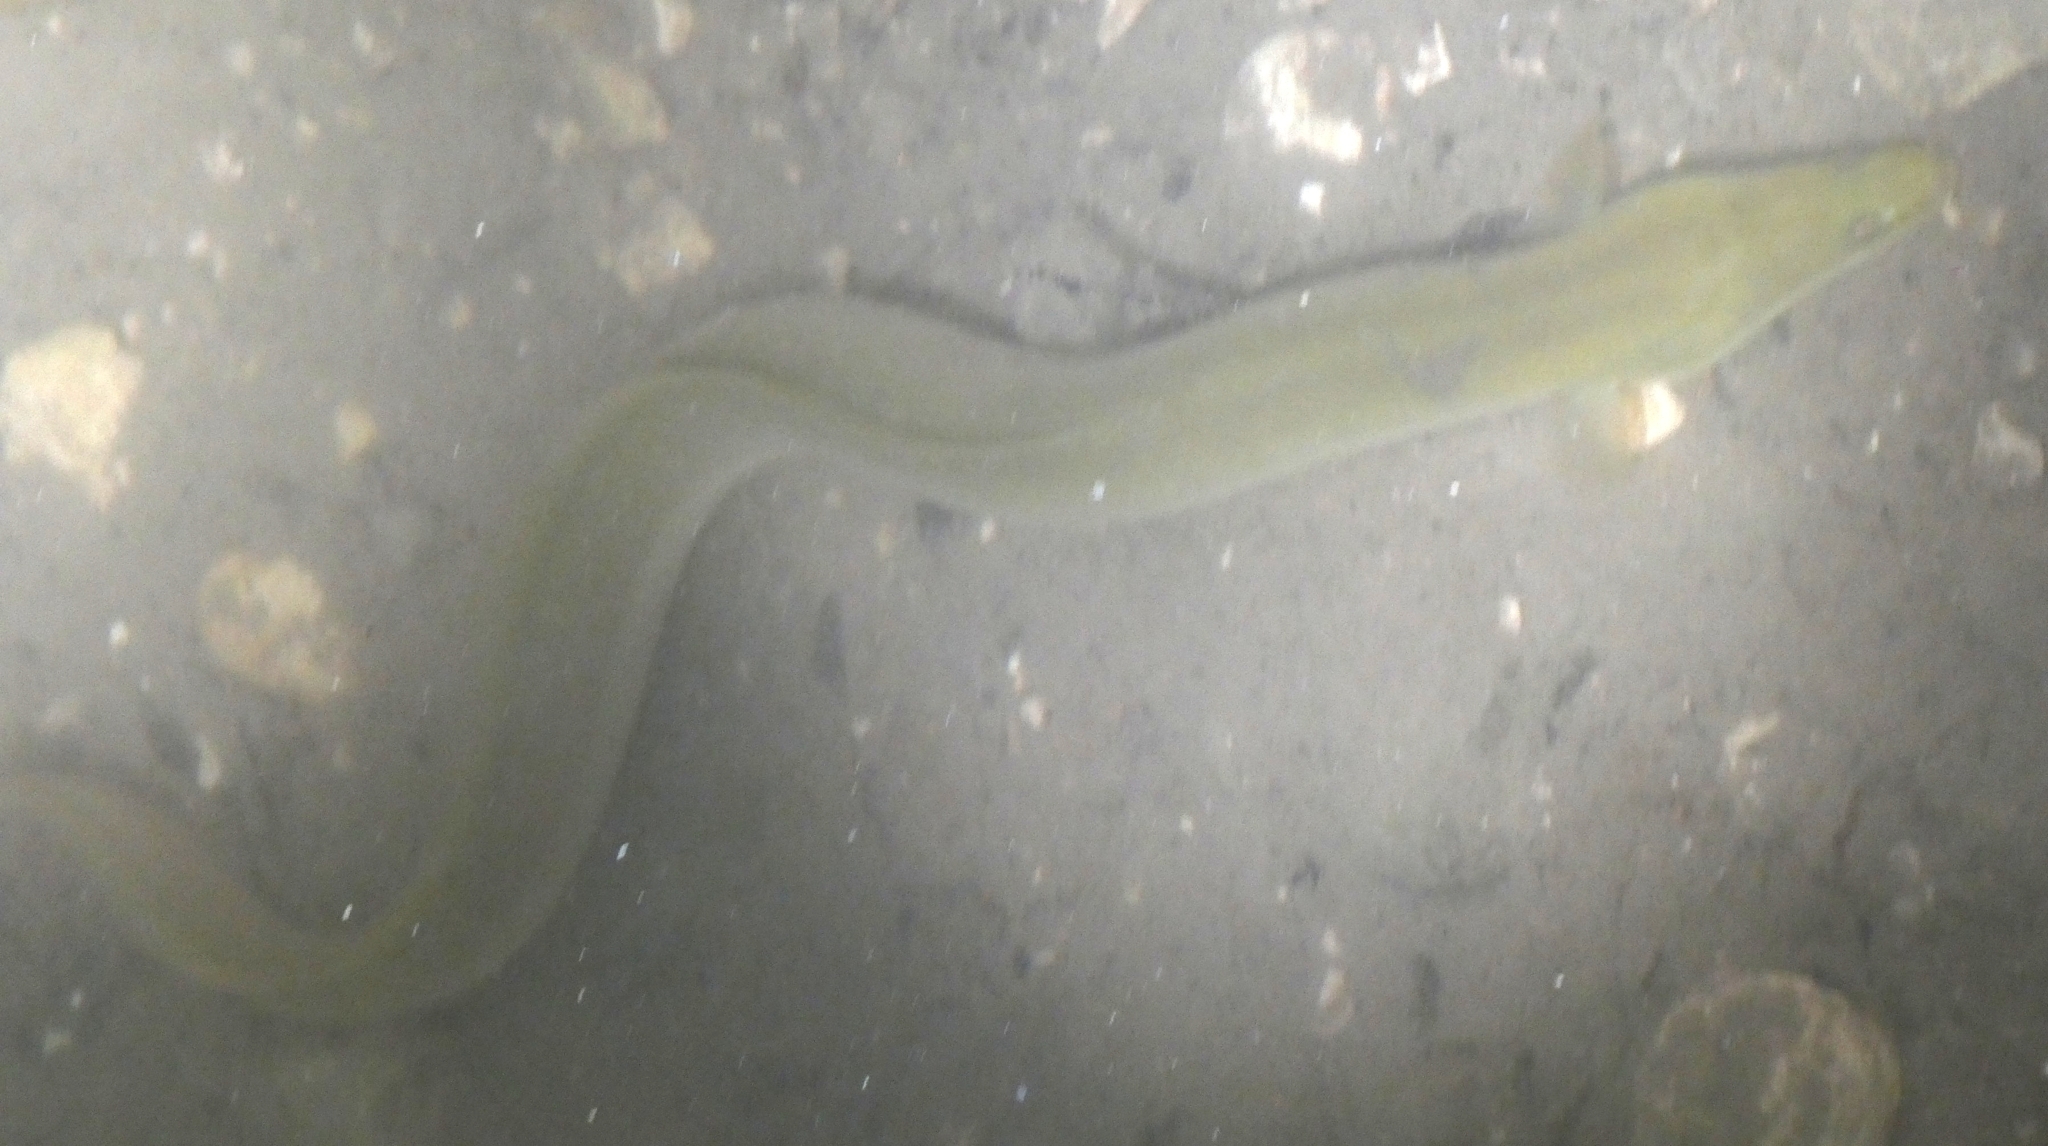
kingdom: Animalia
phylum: Chordata
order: Anguilliformes
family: Anguillidae
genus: Anguilla
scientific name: Anguilla anguilla
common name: European eel
